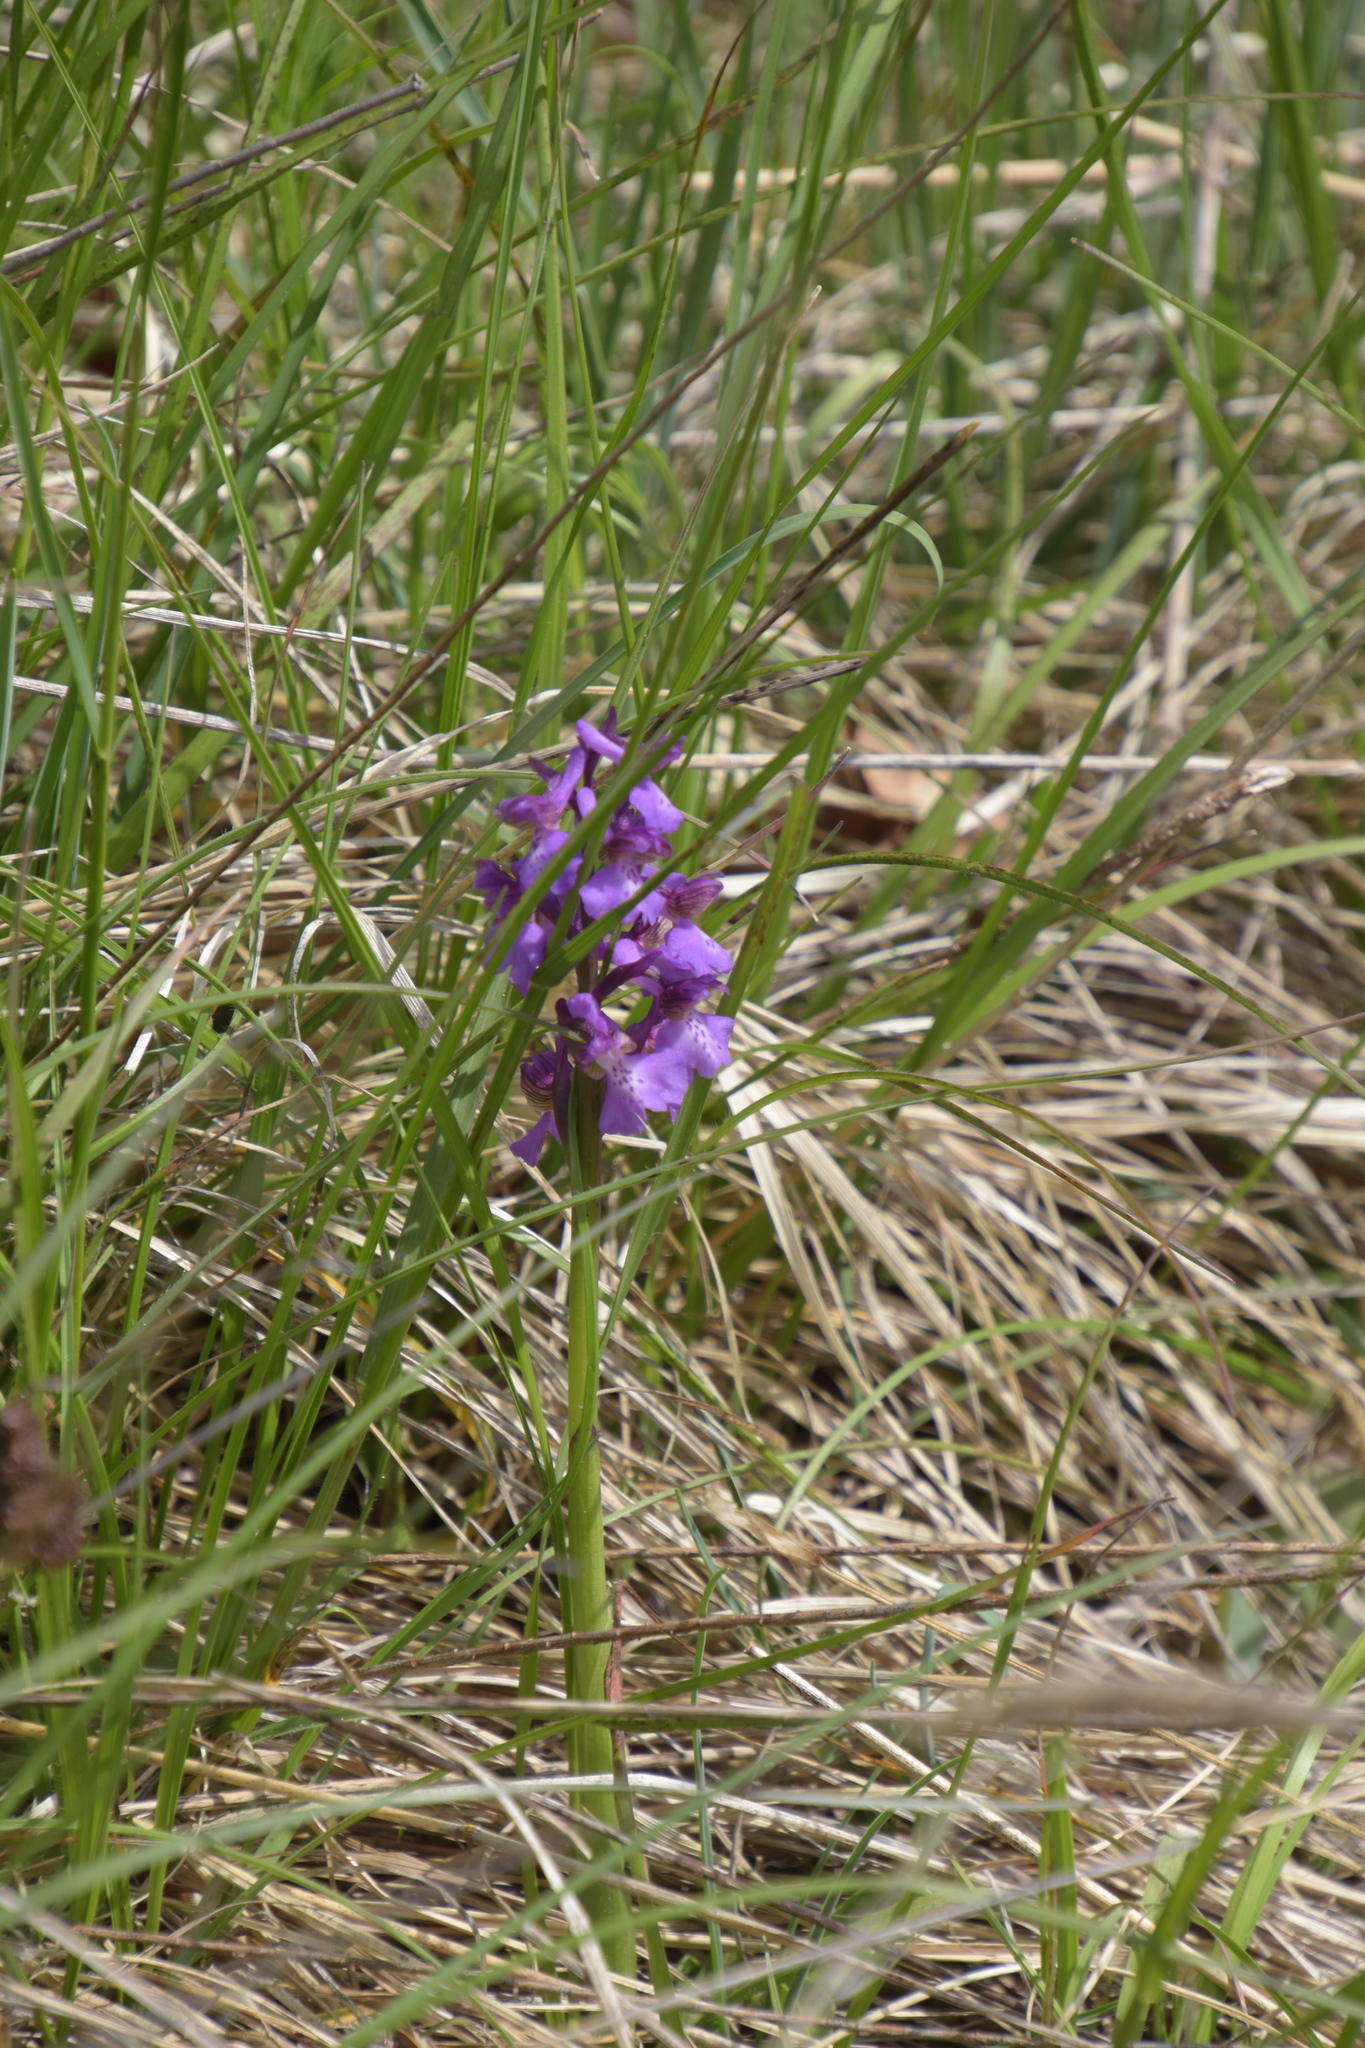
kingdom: Plantae
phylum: Tracheophyta
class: Liliopsida
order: Asparagales
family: Orchidaceae
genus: Anacamptis
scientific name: Anacamptis morio
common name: Green-winged orchid
